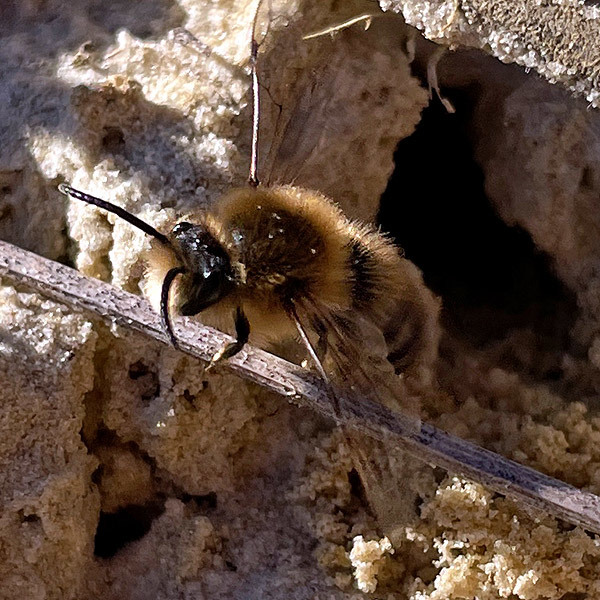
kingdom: Animalia
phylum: Arthropoda
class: Insecta
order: Hymenoptera
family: Colletidae
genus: Colletes
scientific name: Colletes cunicularius
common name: Early colletes
